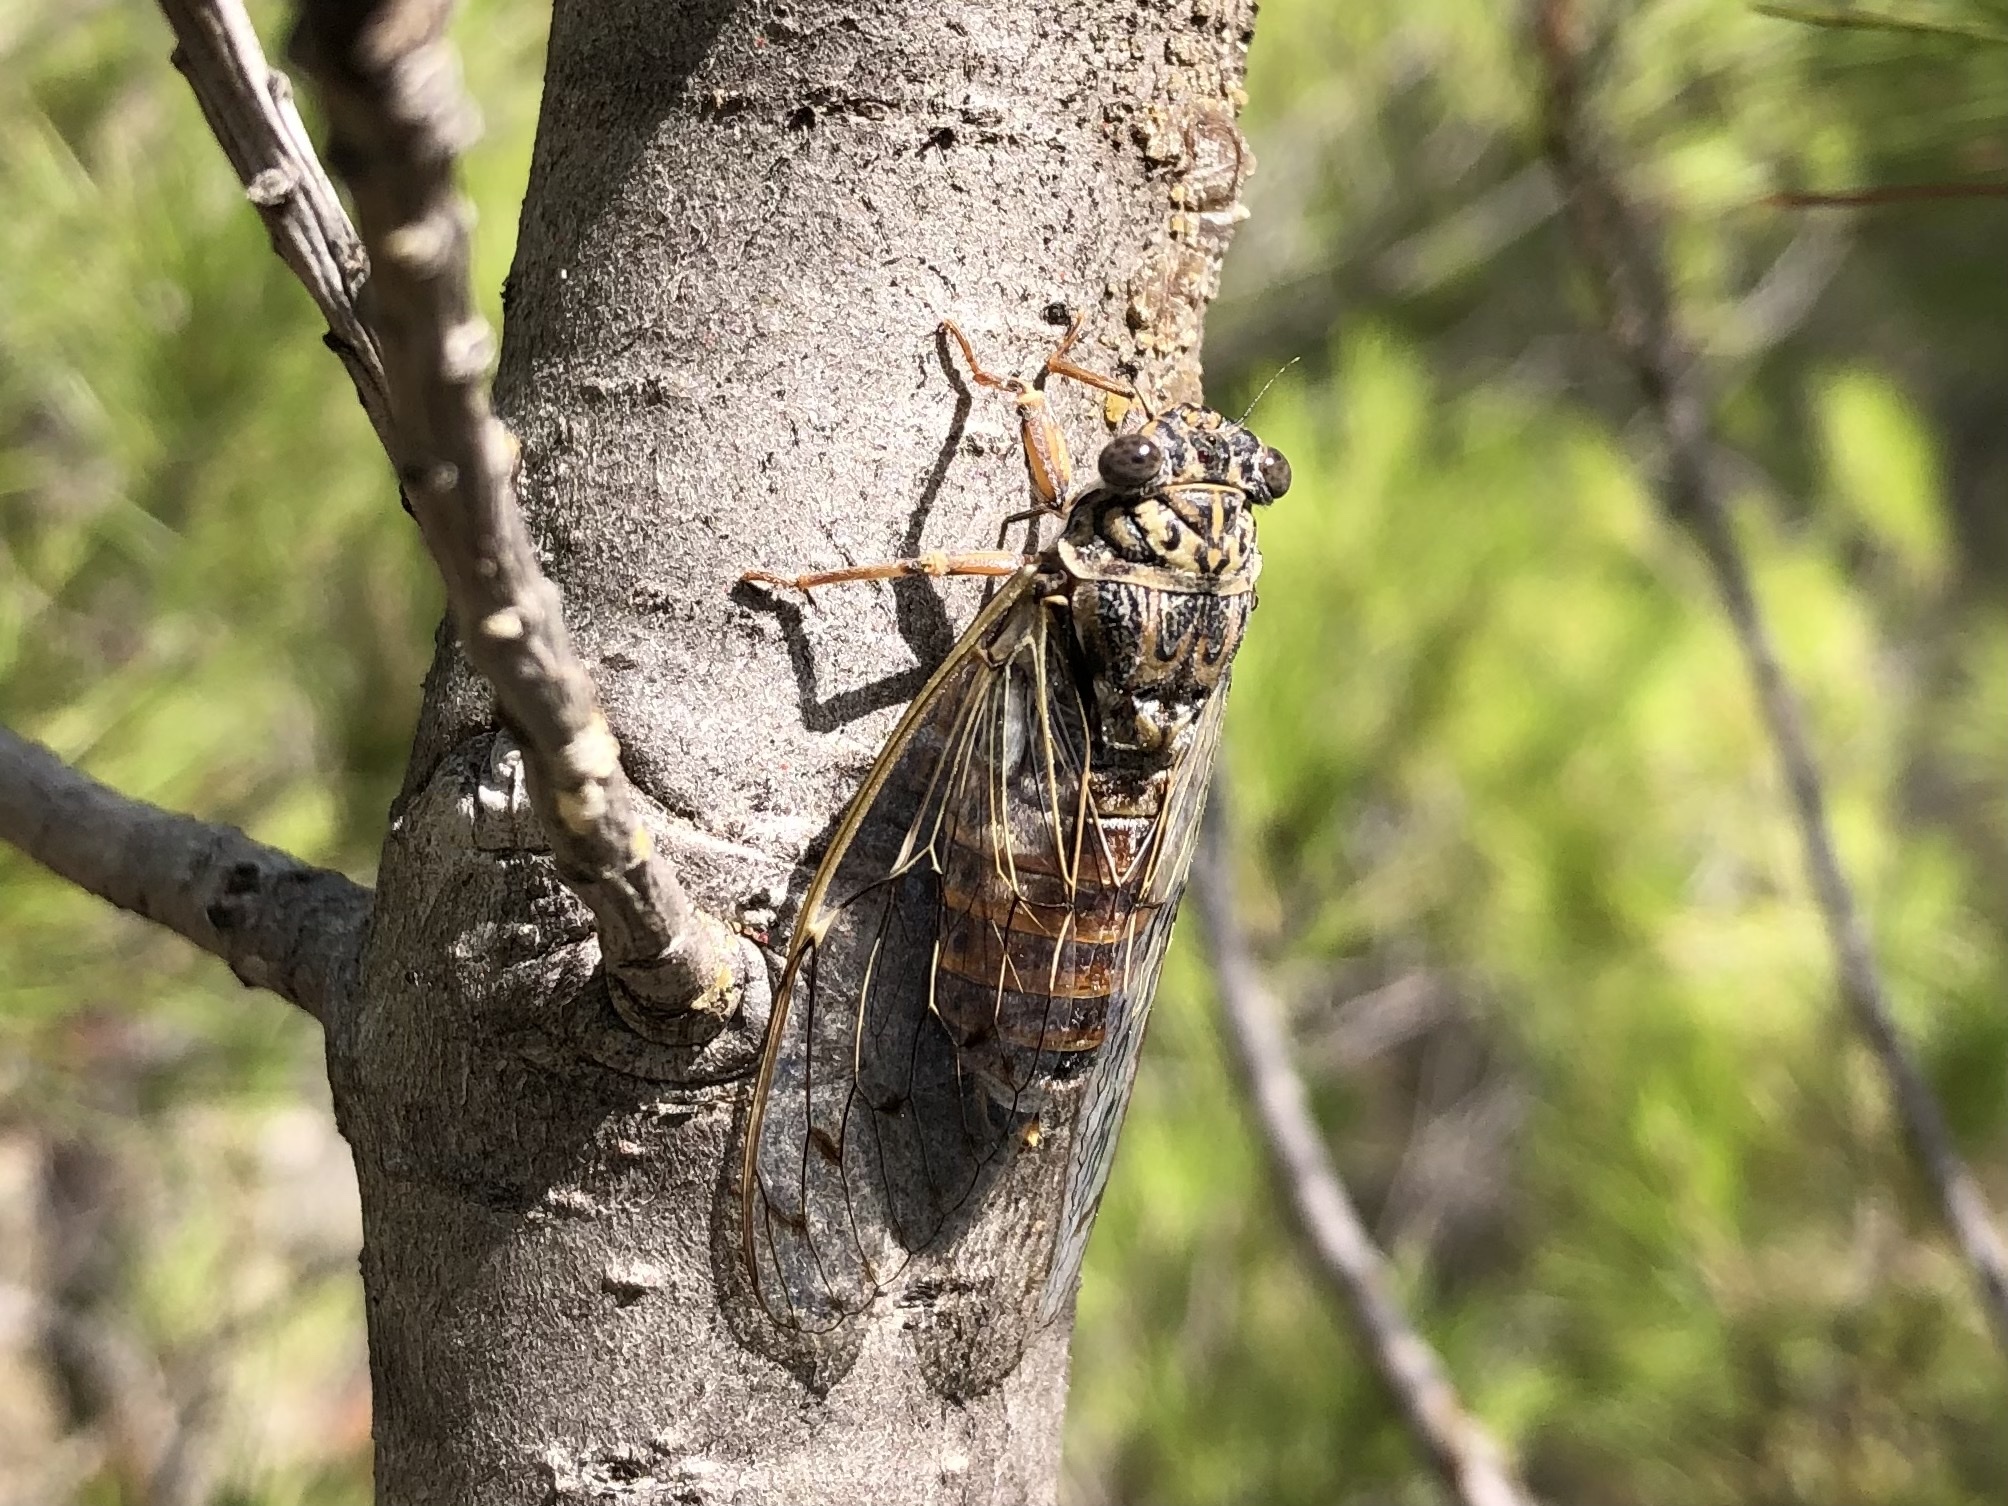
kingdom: Animalia
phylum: Arthropoda
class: Insecta
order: Hemiptera
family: Cicadidae
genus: Cicada
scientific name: Cicada orni
